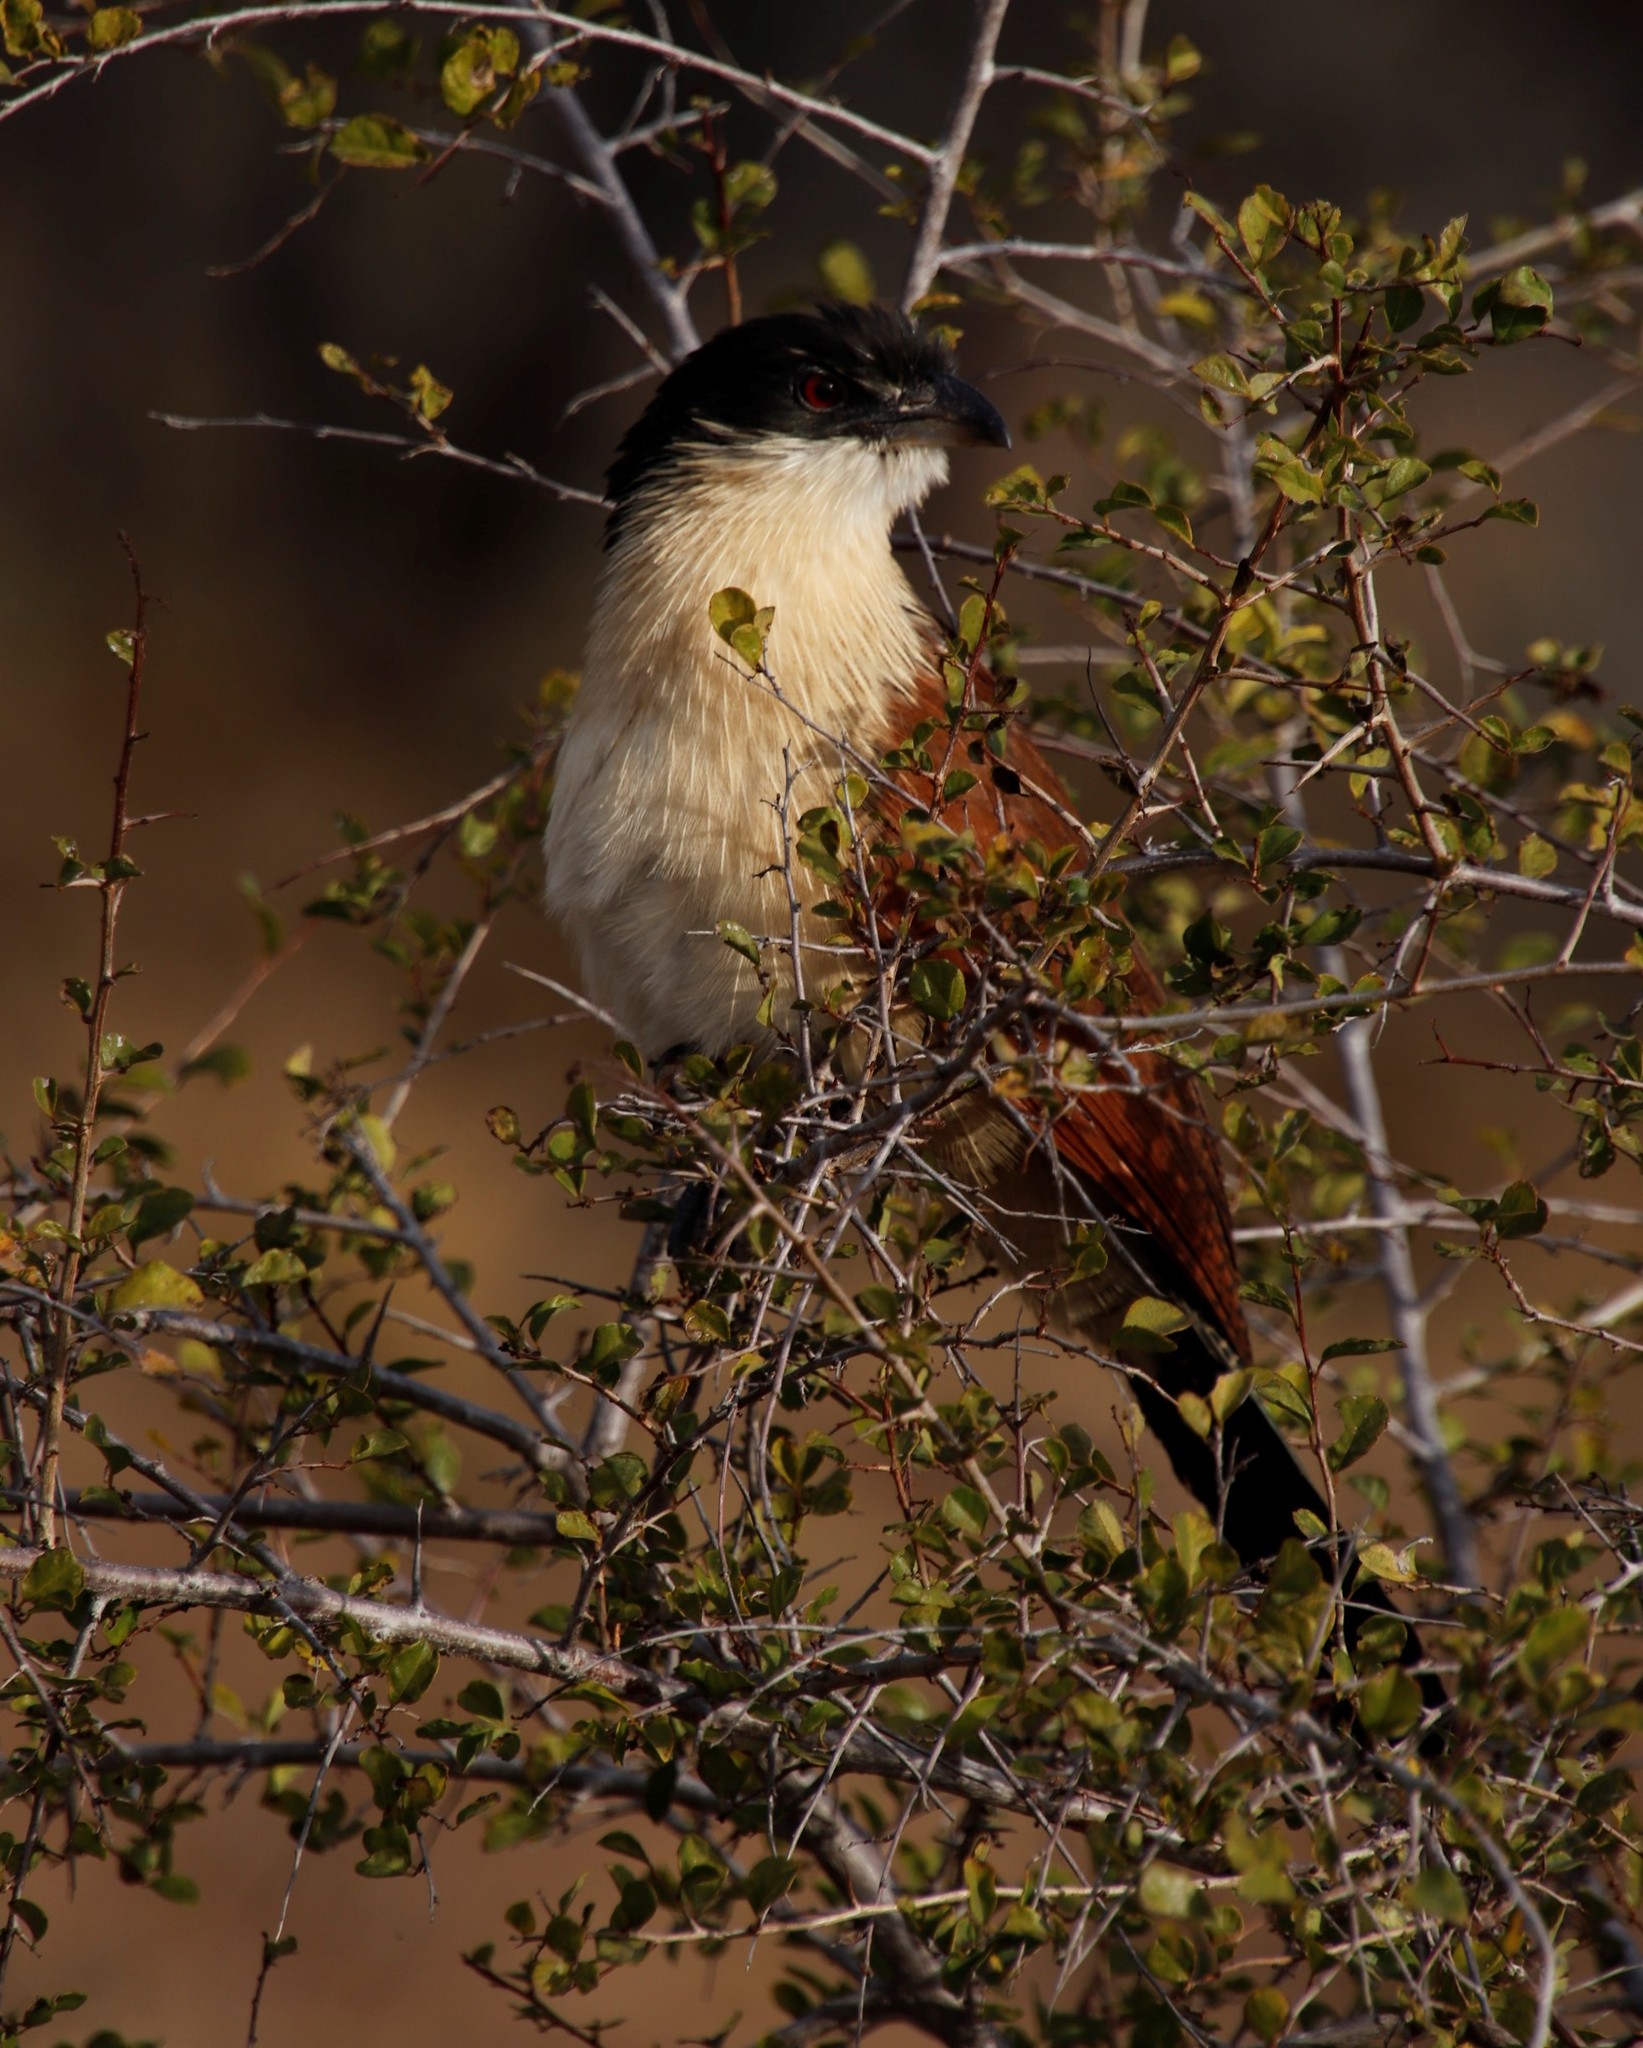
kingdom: Animalia
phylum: Chordata
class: Aves
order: Cuculiformes
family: Cuculidae
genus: Centropus
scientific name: Centropus superciliosus
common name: White-browed coucal
